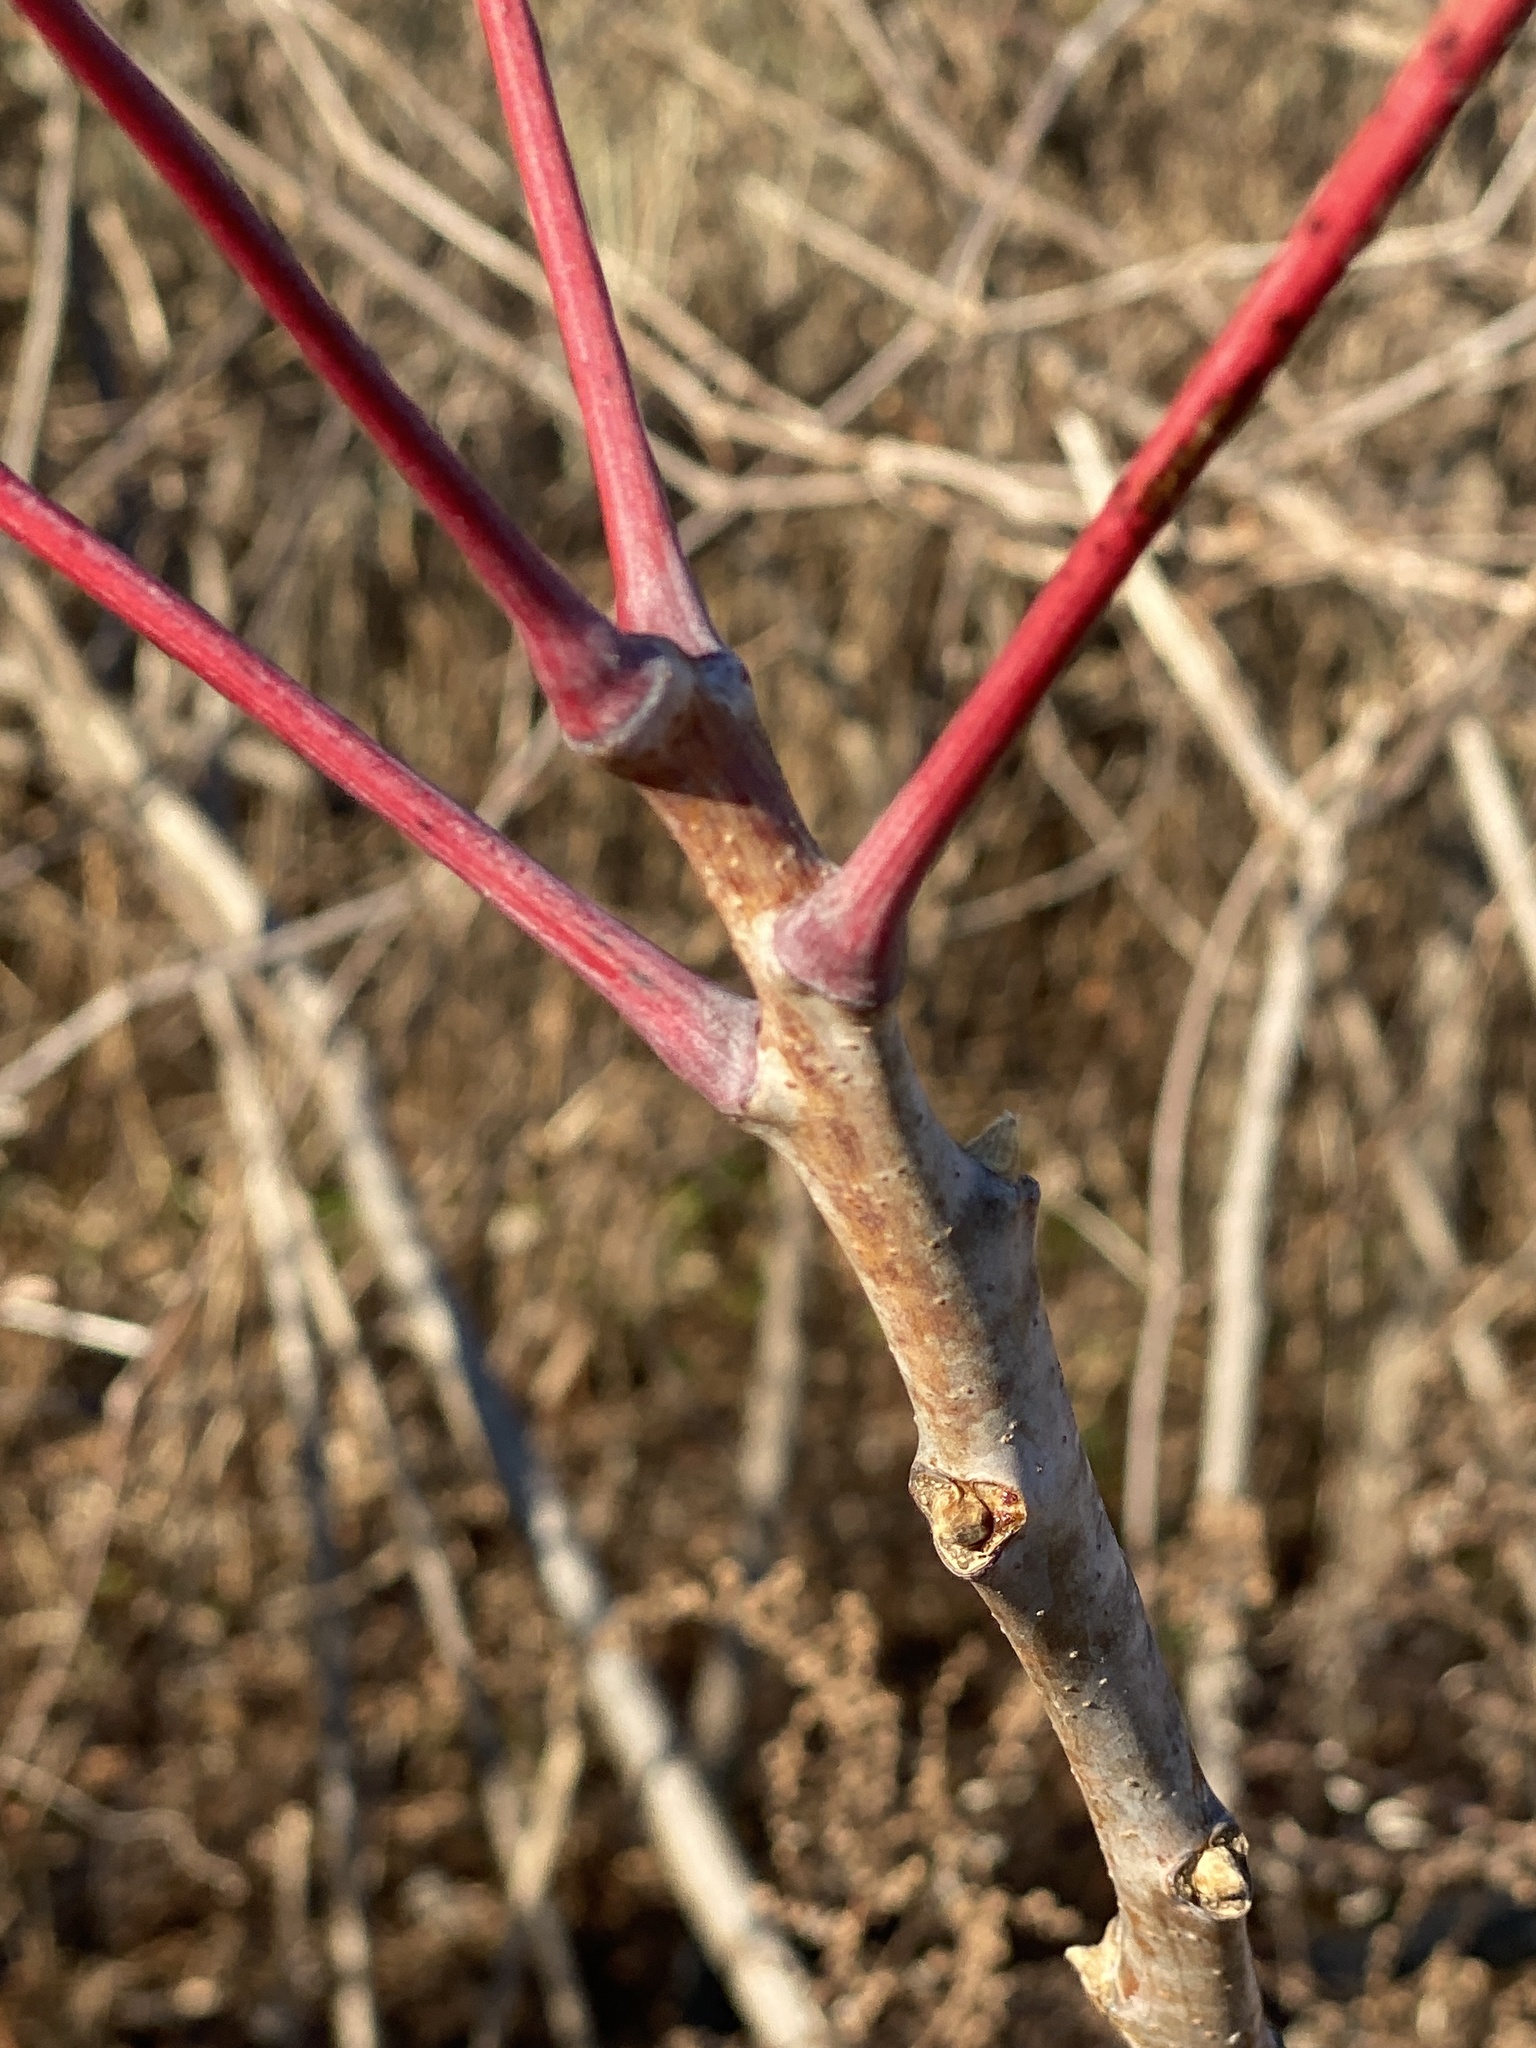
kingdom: Plantae
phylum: Tracheophyta
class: Magnoliopsida
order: Sapindales
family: Anacardiaceae
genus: Rhus
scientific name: Rhus glabra
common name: Scarlet sumac
